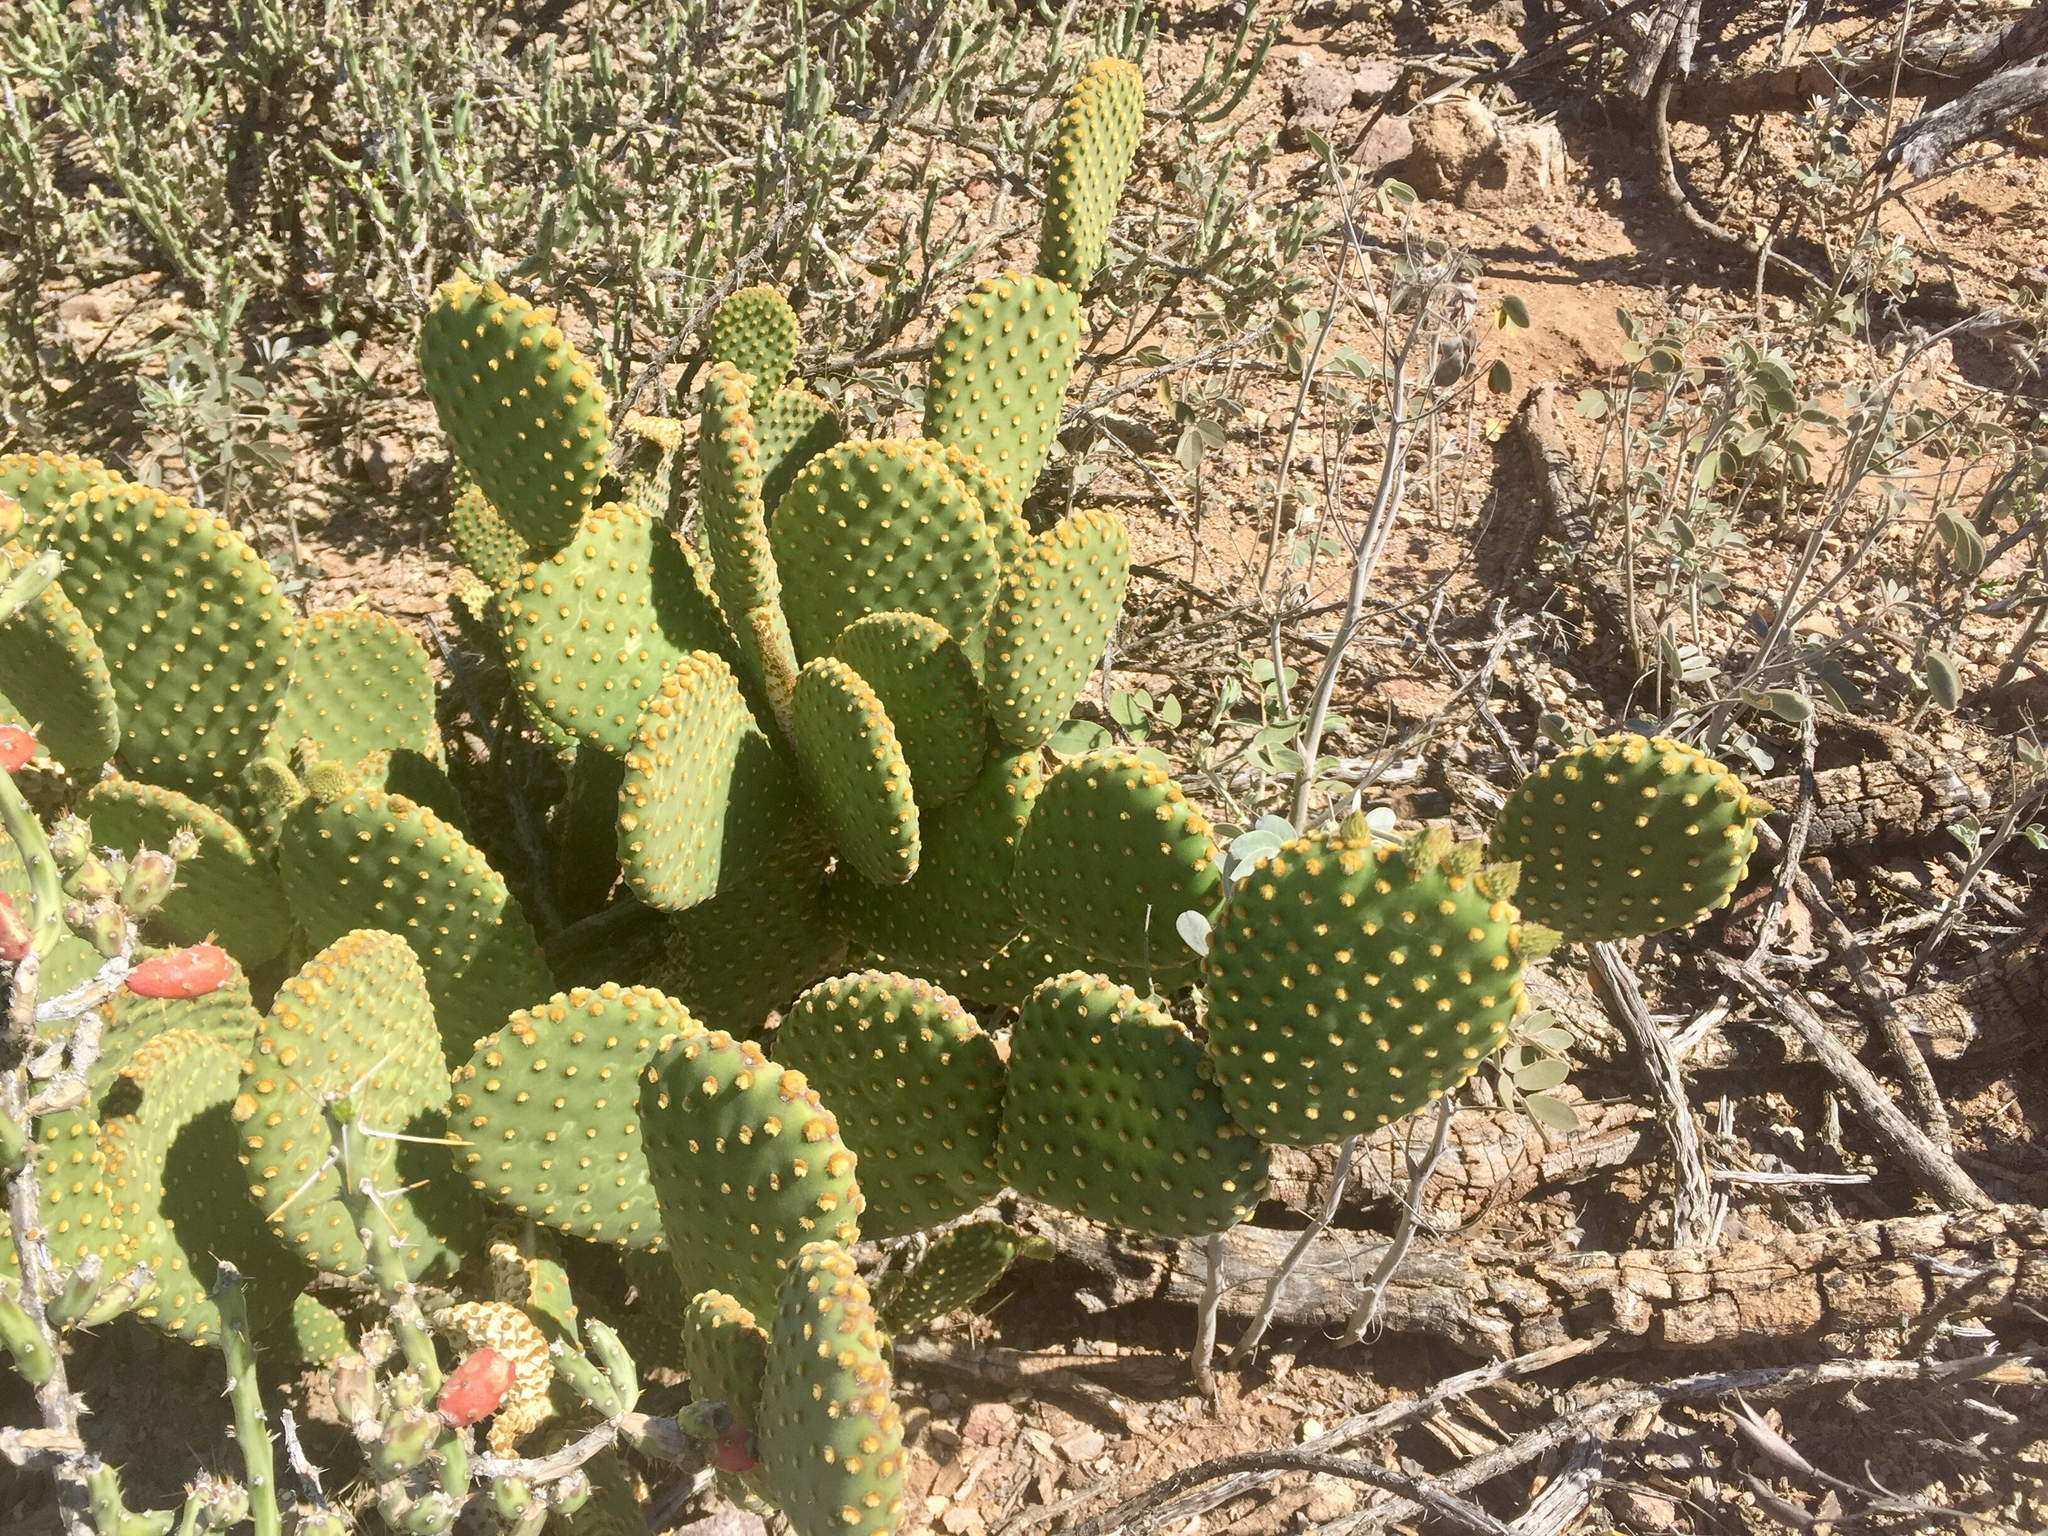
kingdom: Plantae
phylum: Tracheophyta
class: Magnoliopsida
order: Caryophyllales
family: Cactaceae
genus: Opuntia
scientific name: Opuntia microdasys
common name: Angel's-wings
